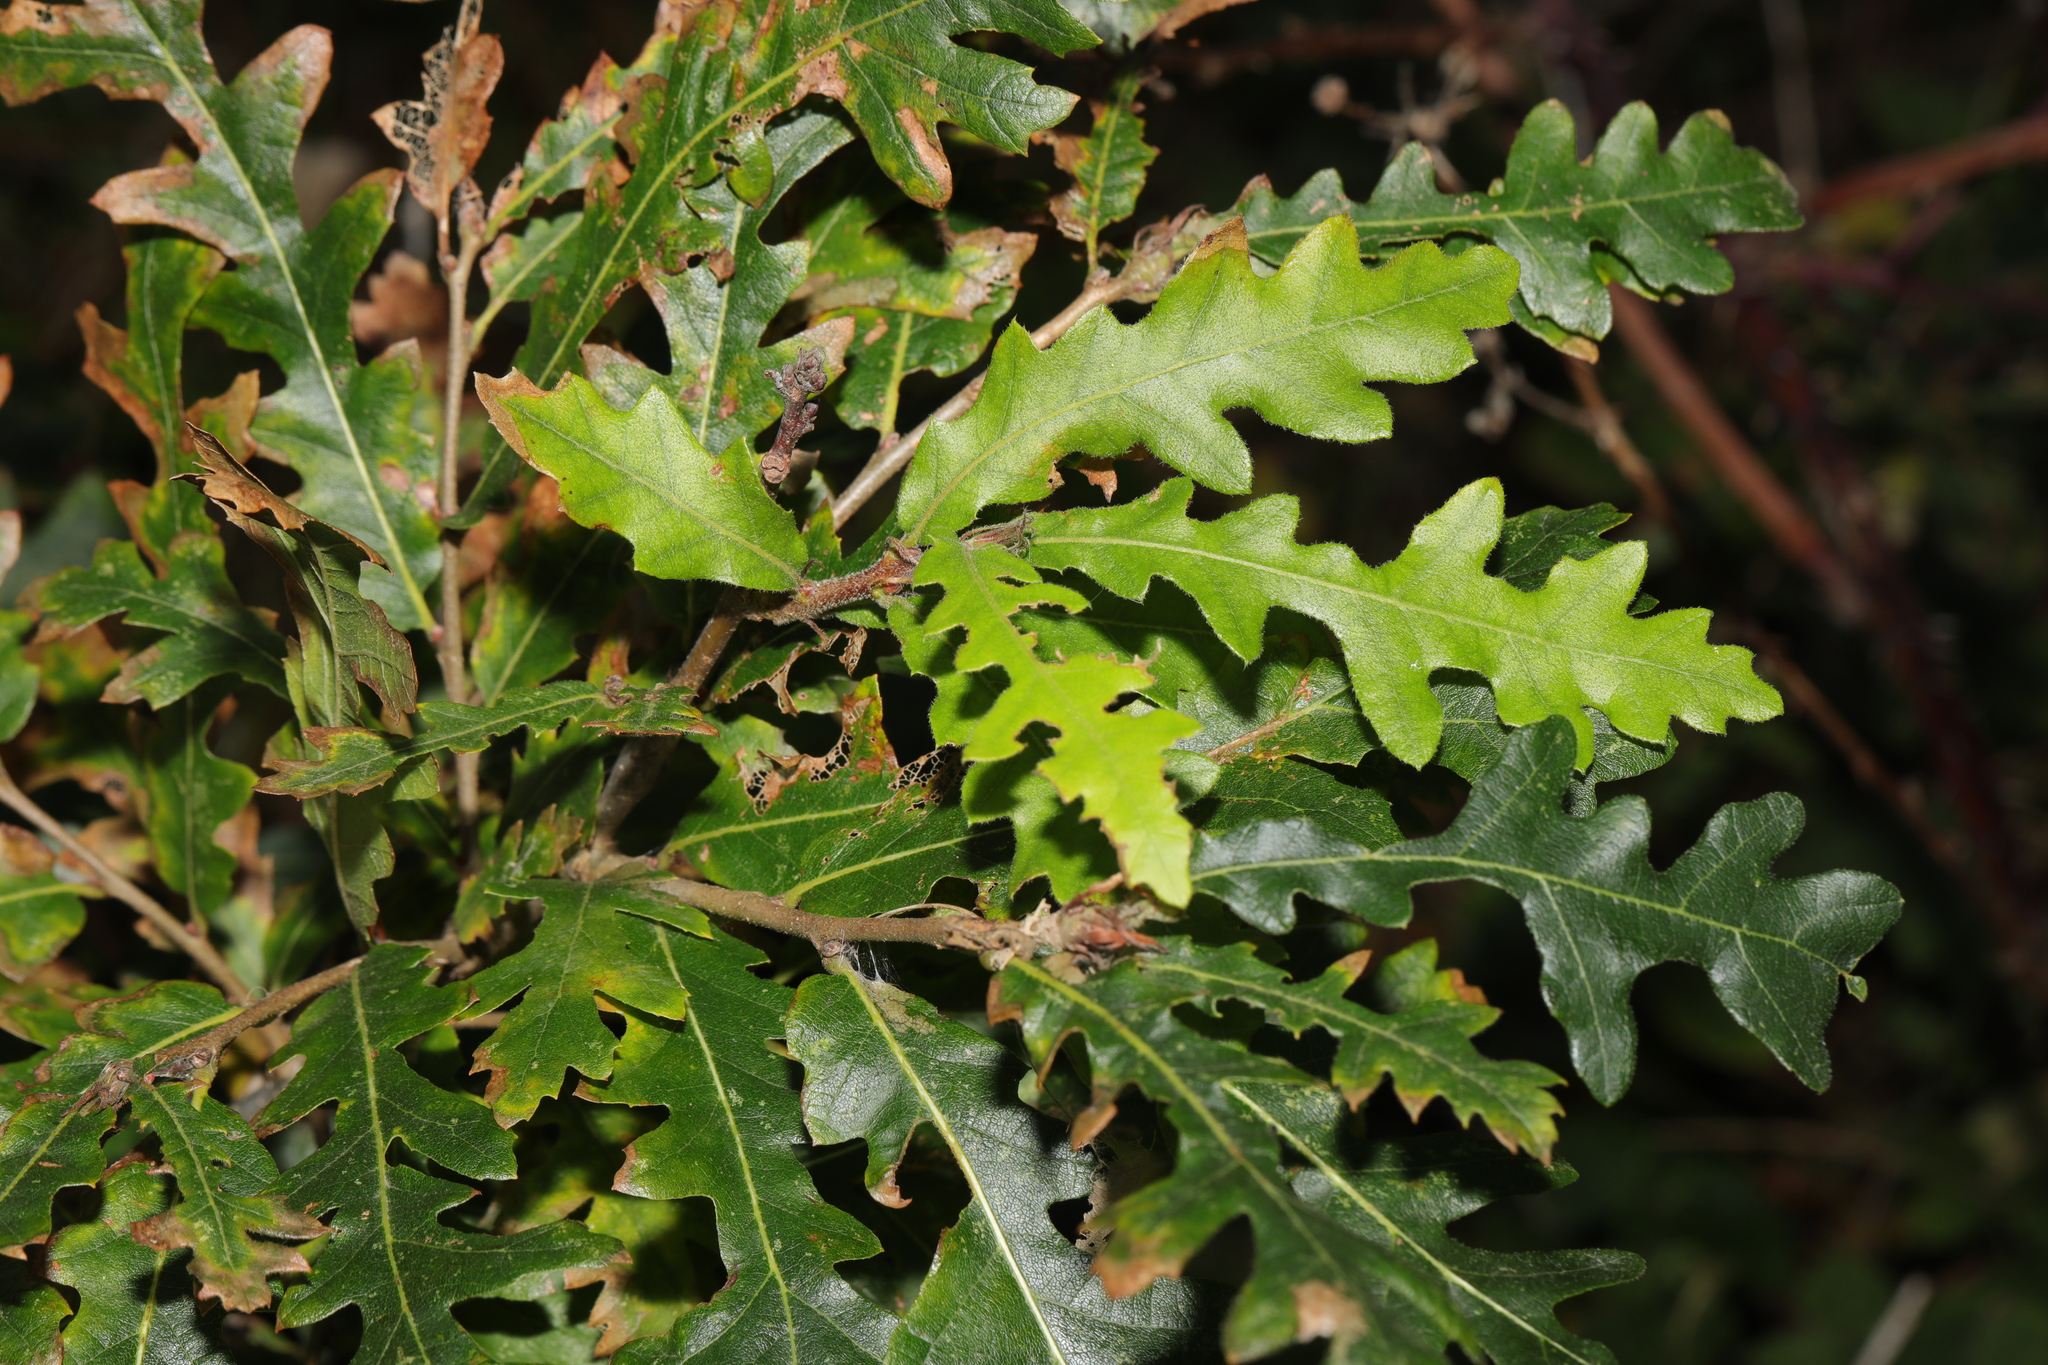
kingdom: Plantae
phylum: Tracheophyta
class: Magnoliopsida
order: Fagales
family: Fagaceae
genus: Quercus
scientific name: Quercus cerris
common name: Turkey oak
